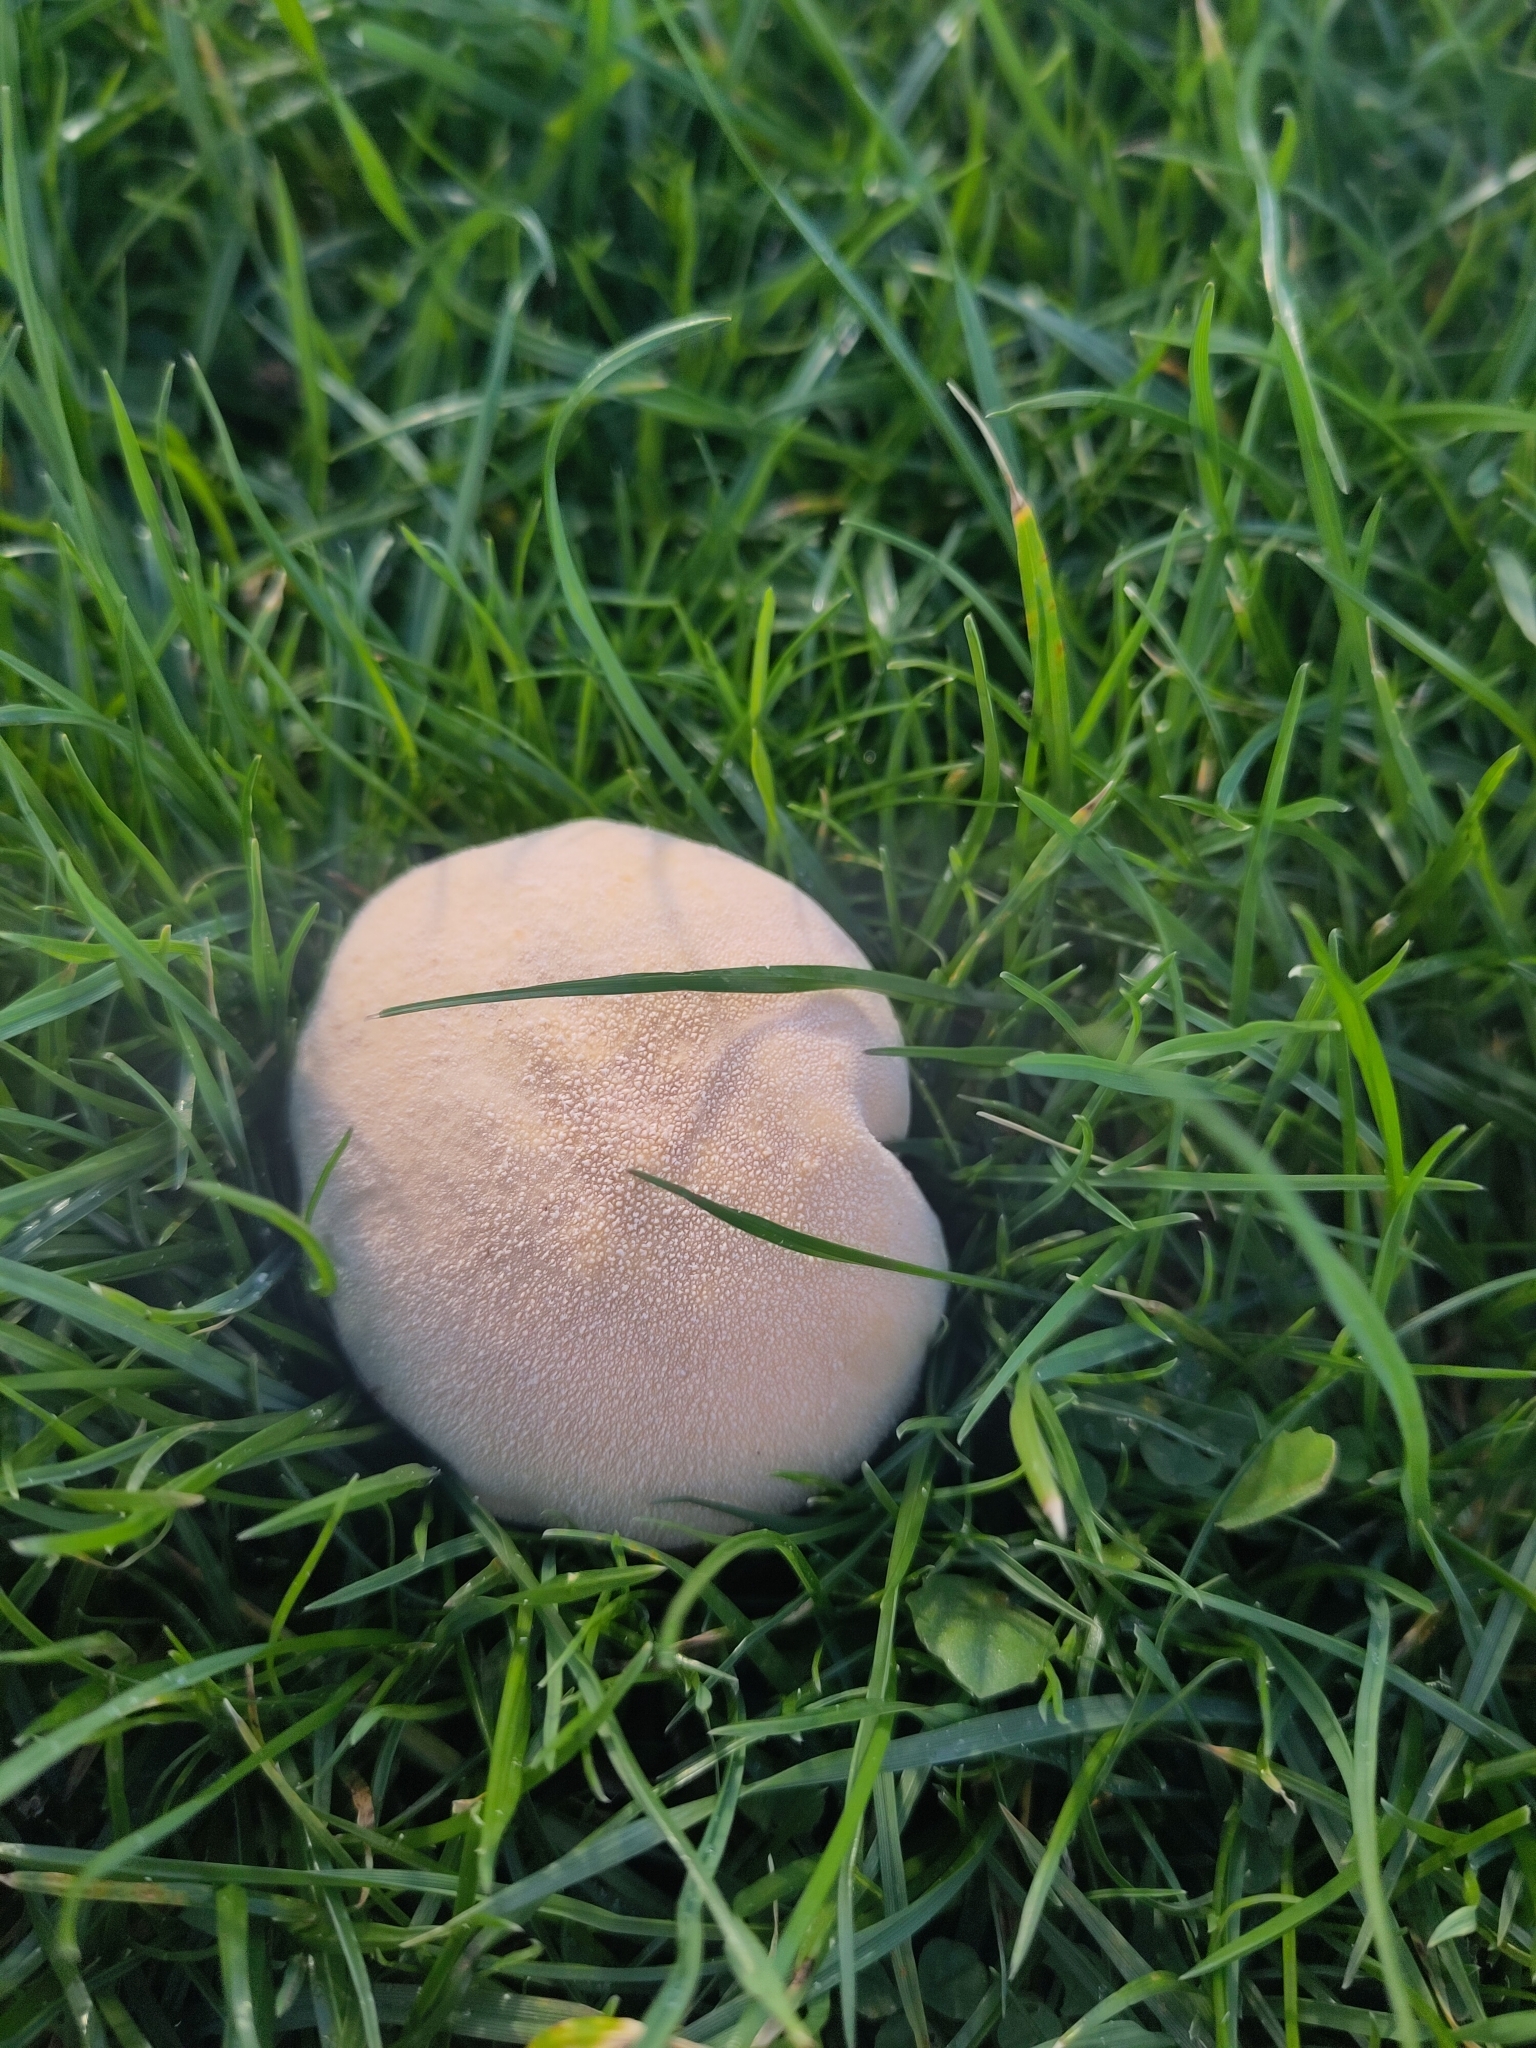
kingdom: Fungi
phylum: Basidiomycota
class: Agaricomycetes
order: Agaricales
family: Lycoperdaceae
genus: Lycoperdon
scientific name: Lycoperdon pratense
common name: Meadow puffball
